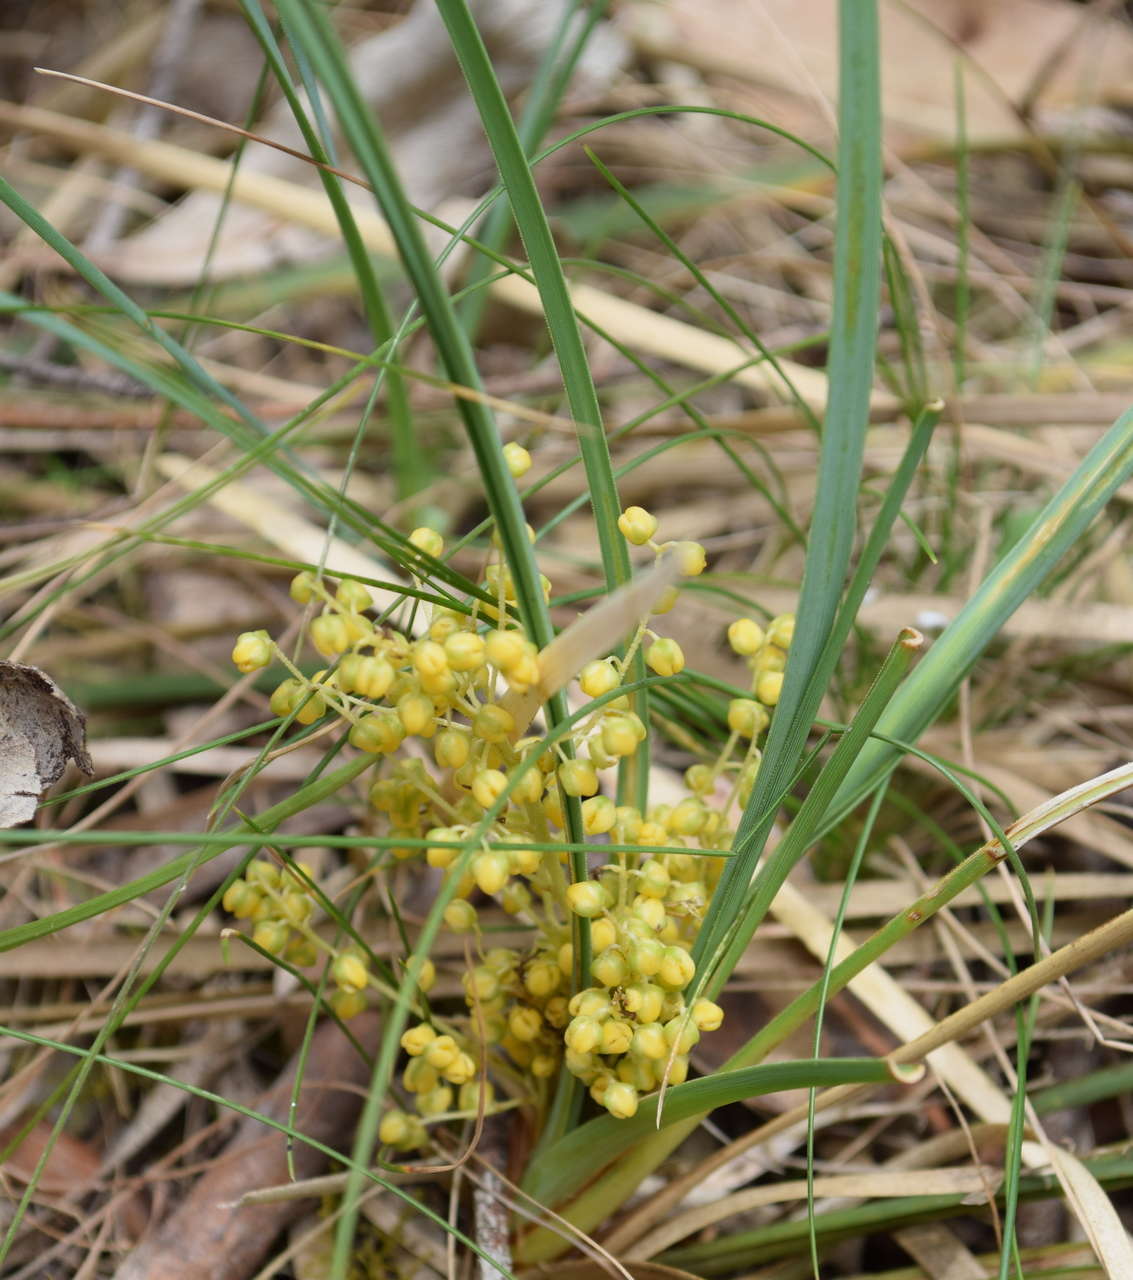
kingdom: Plantae
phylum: Tracheophyta
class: Liliopsida
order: Asparagales
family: Asparagaceae
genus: Lomandra
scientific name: Lomandra filiformis
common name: Wattle mat-rush
